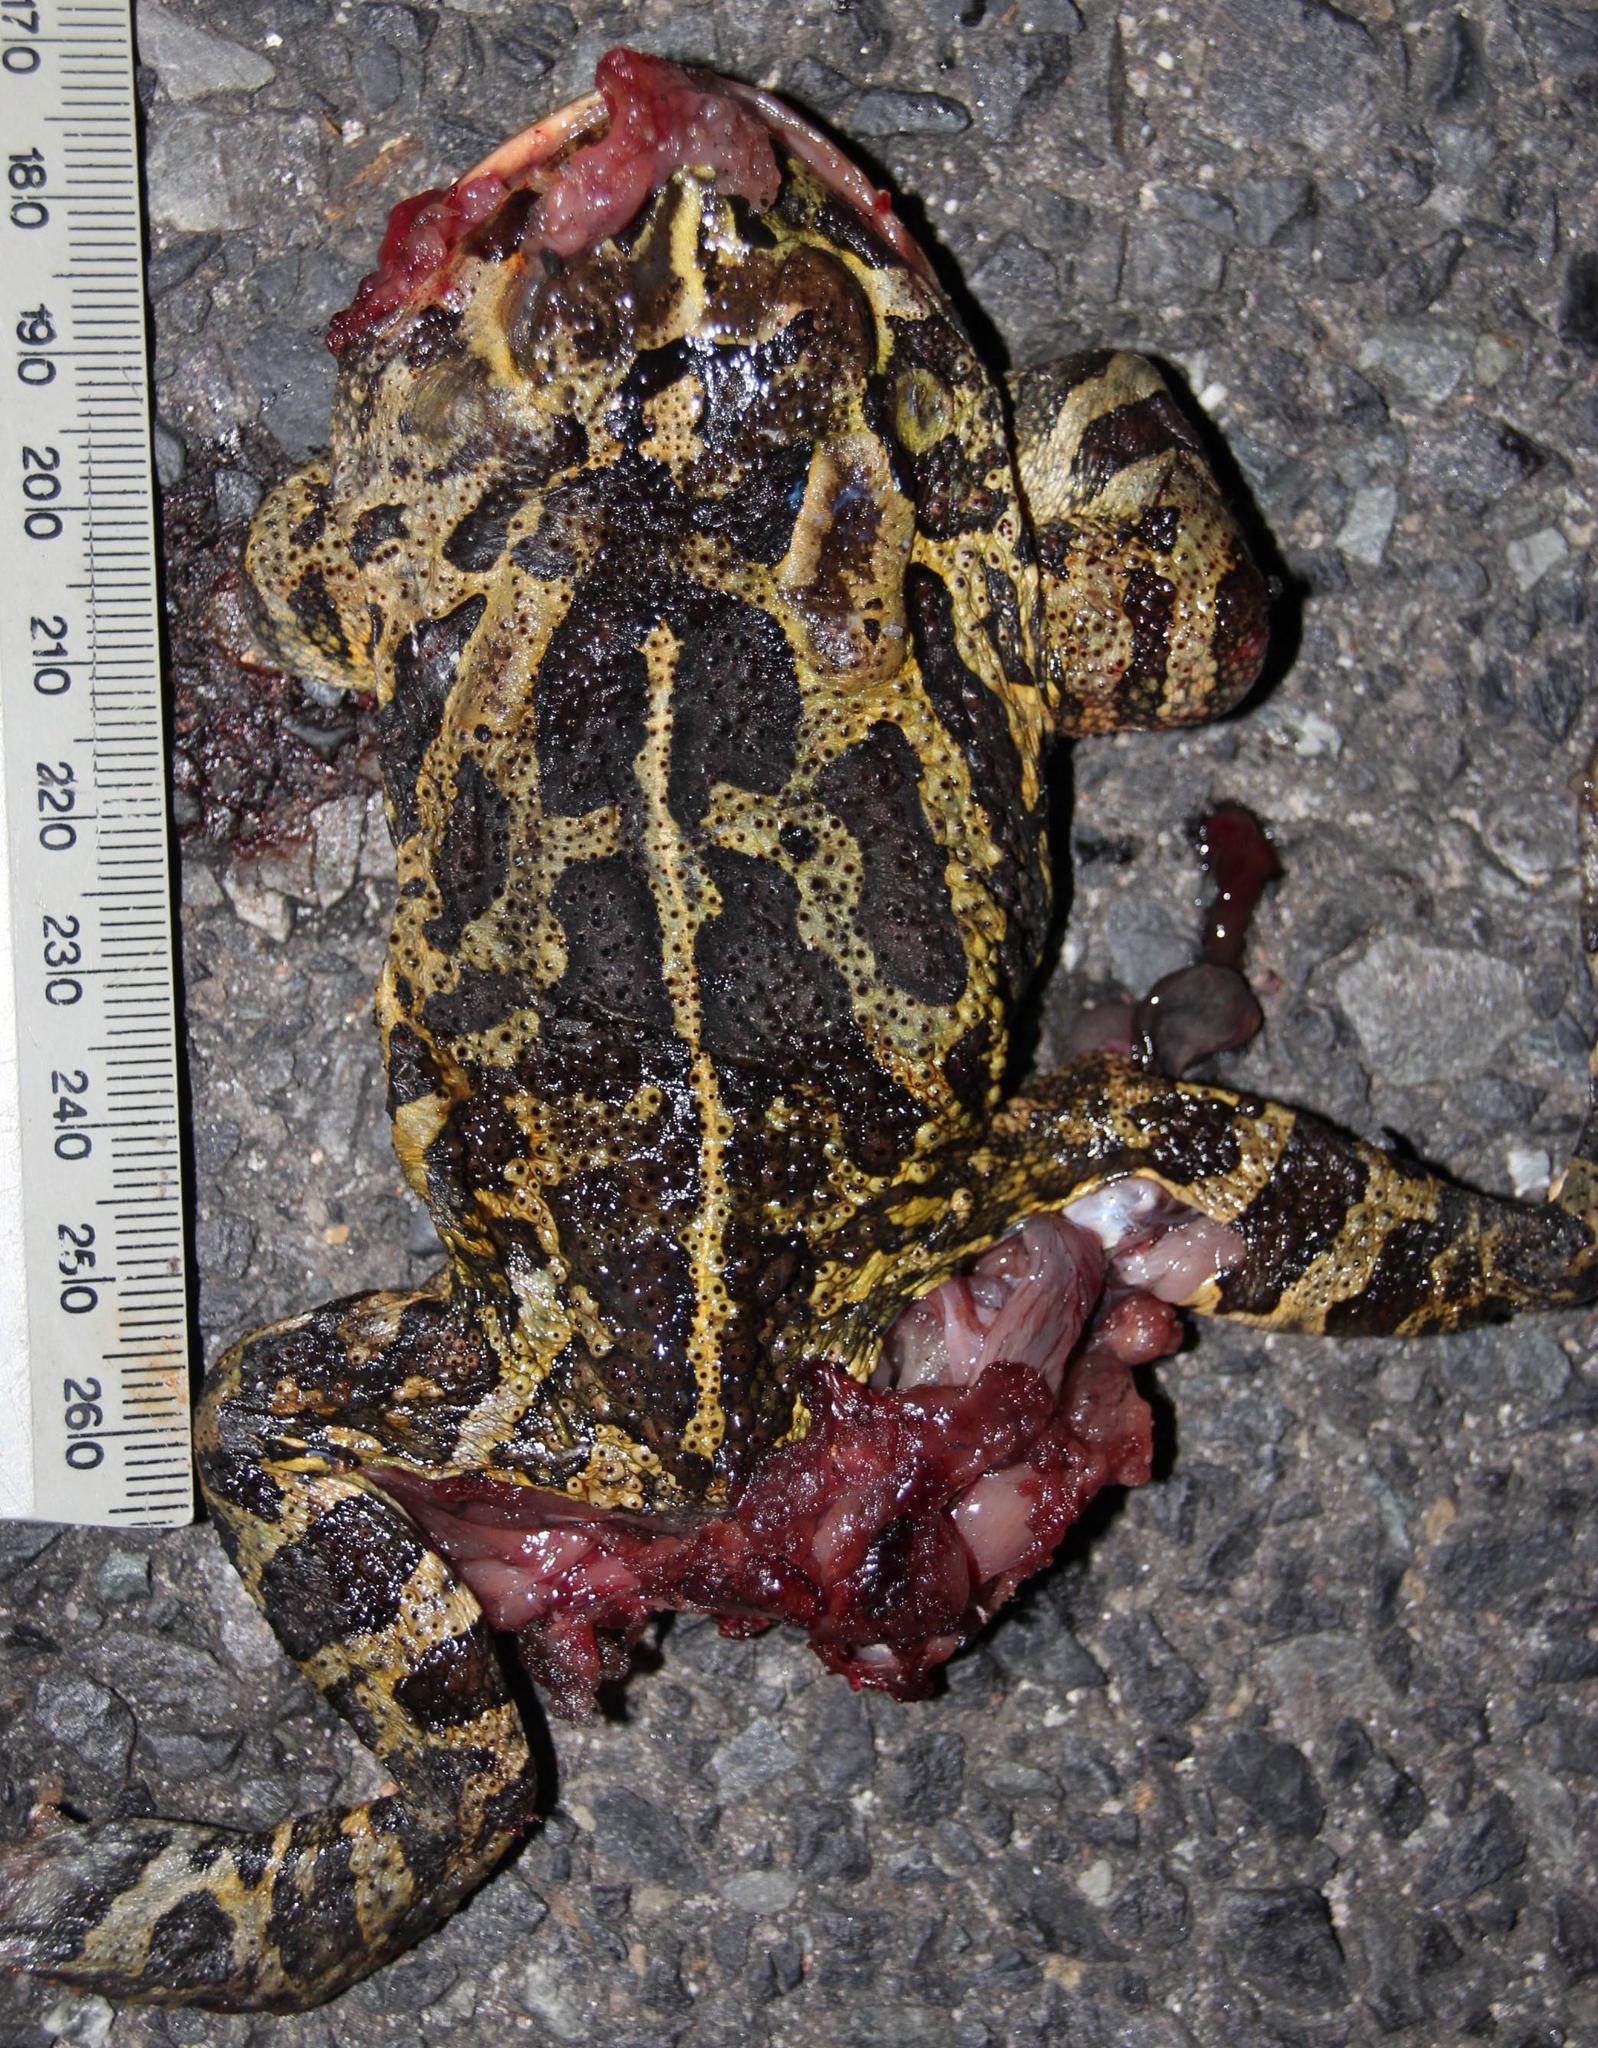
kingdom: Animalia
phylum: Chordata
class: Amphibia
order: Anura
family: Bufonidae
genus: Sclerophrys
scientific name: Sclerophrys pantherina
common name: Panther toad
